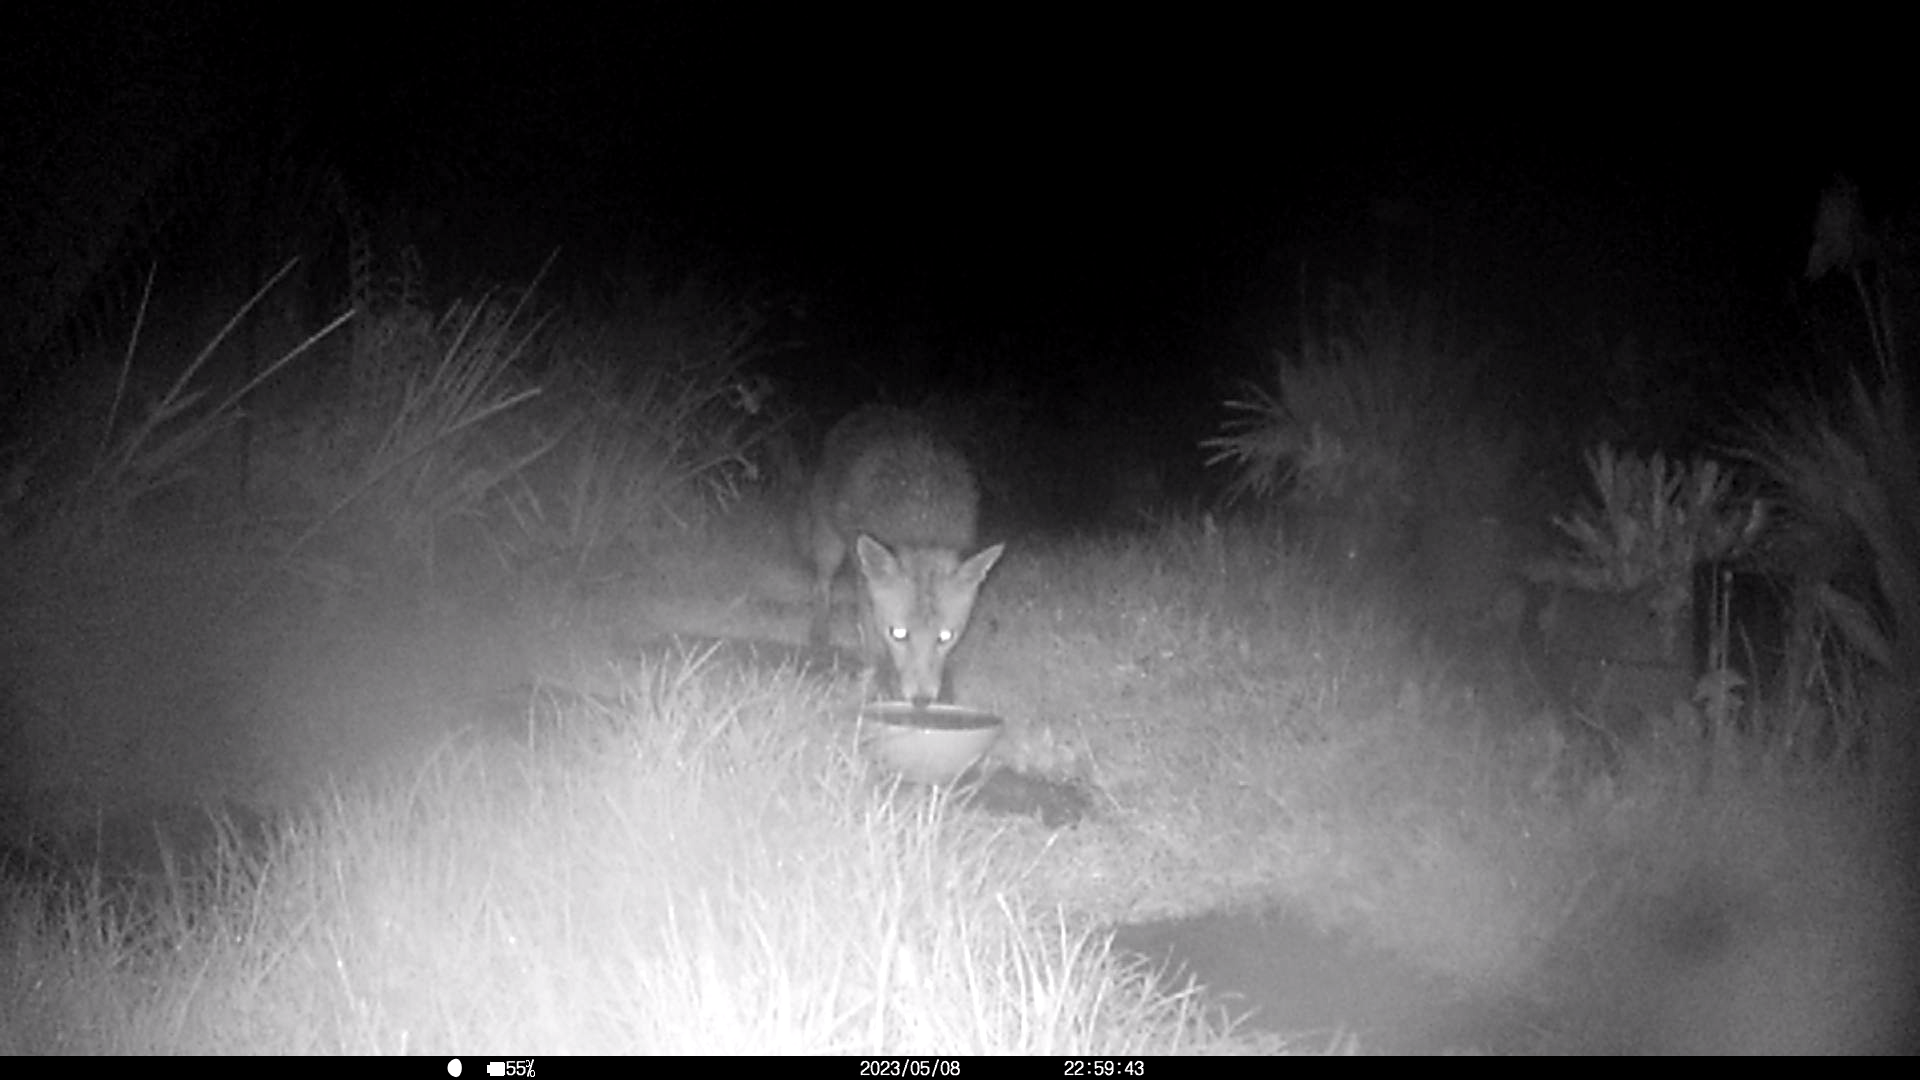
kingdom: Animalia
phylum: Chordata
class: Mammalia
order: Carnivora
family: Canidae
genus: Vulpes
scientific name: Vulpes vulpes
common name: Red fox
